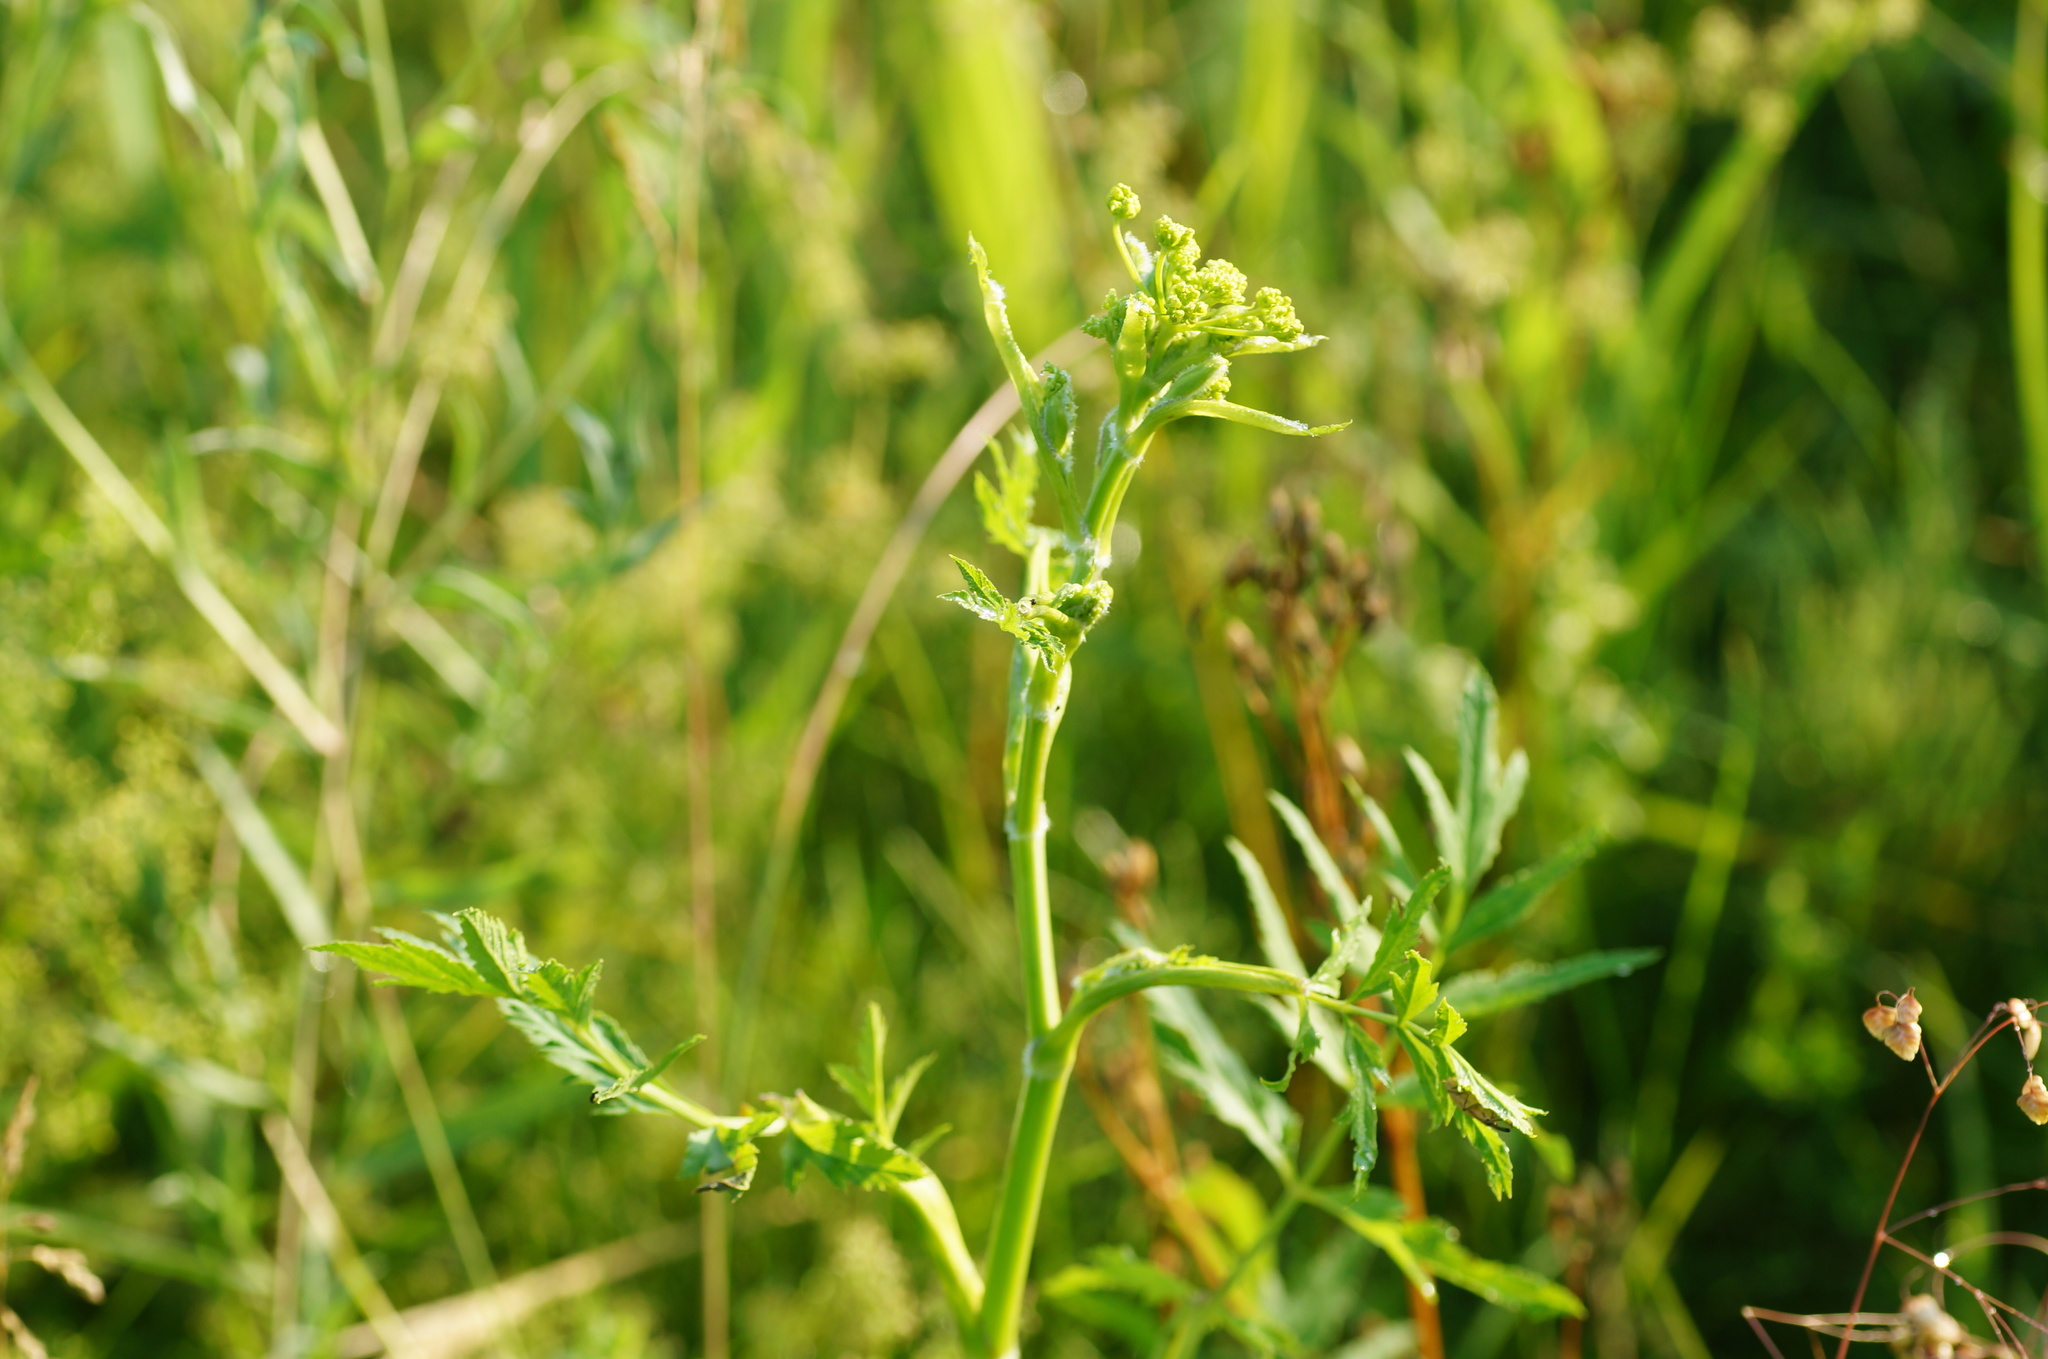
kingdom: Plantae
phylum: Tracheophyta
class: Magnoliopsida
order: Apiales
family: Apiaceae
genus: Pastinaca
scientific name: Pastinaca sativa
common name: Wild parsnip
